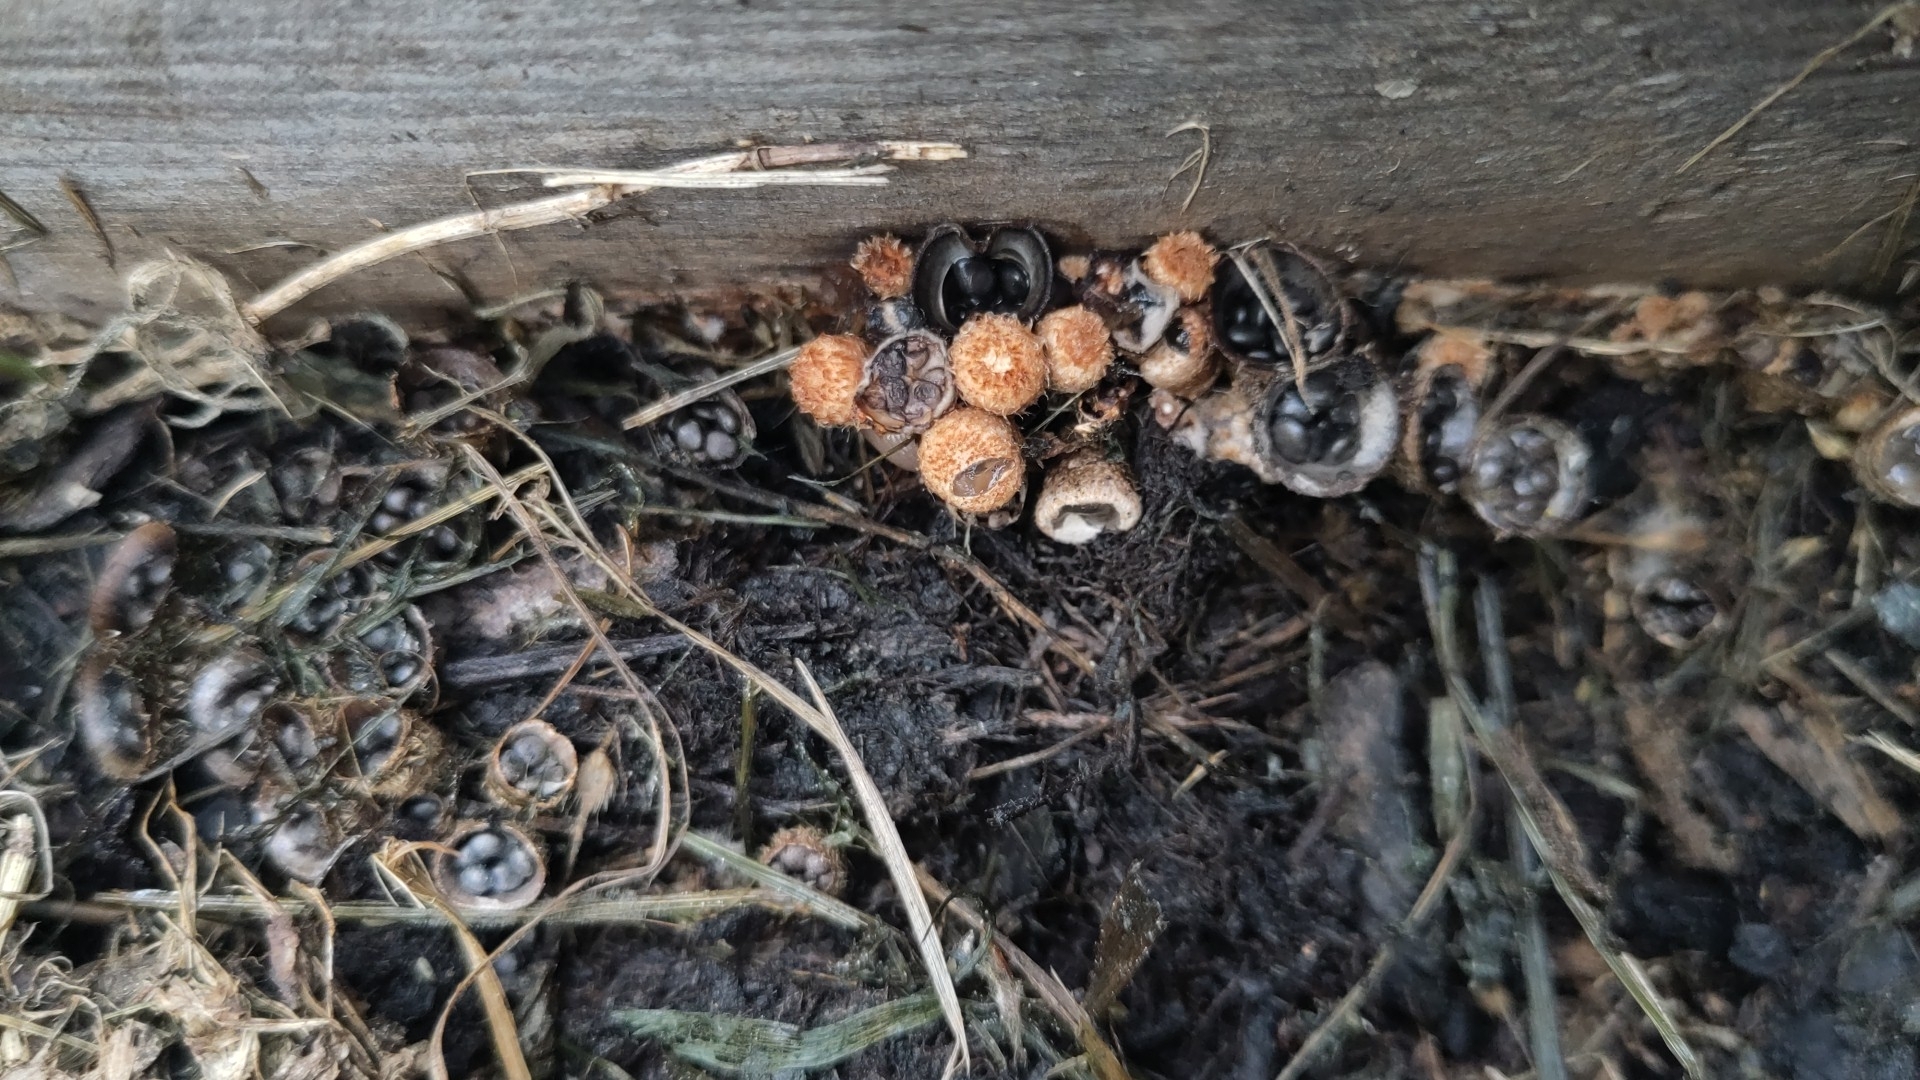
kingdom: Fungi
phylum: Basidiomycota
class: Agaricomycetes
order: Agaricales
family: Agaricaceae
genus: Cyathus
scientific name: Cyathus stercoreus
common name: Dung bird's nest
